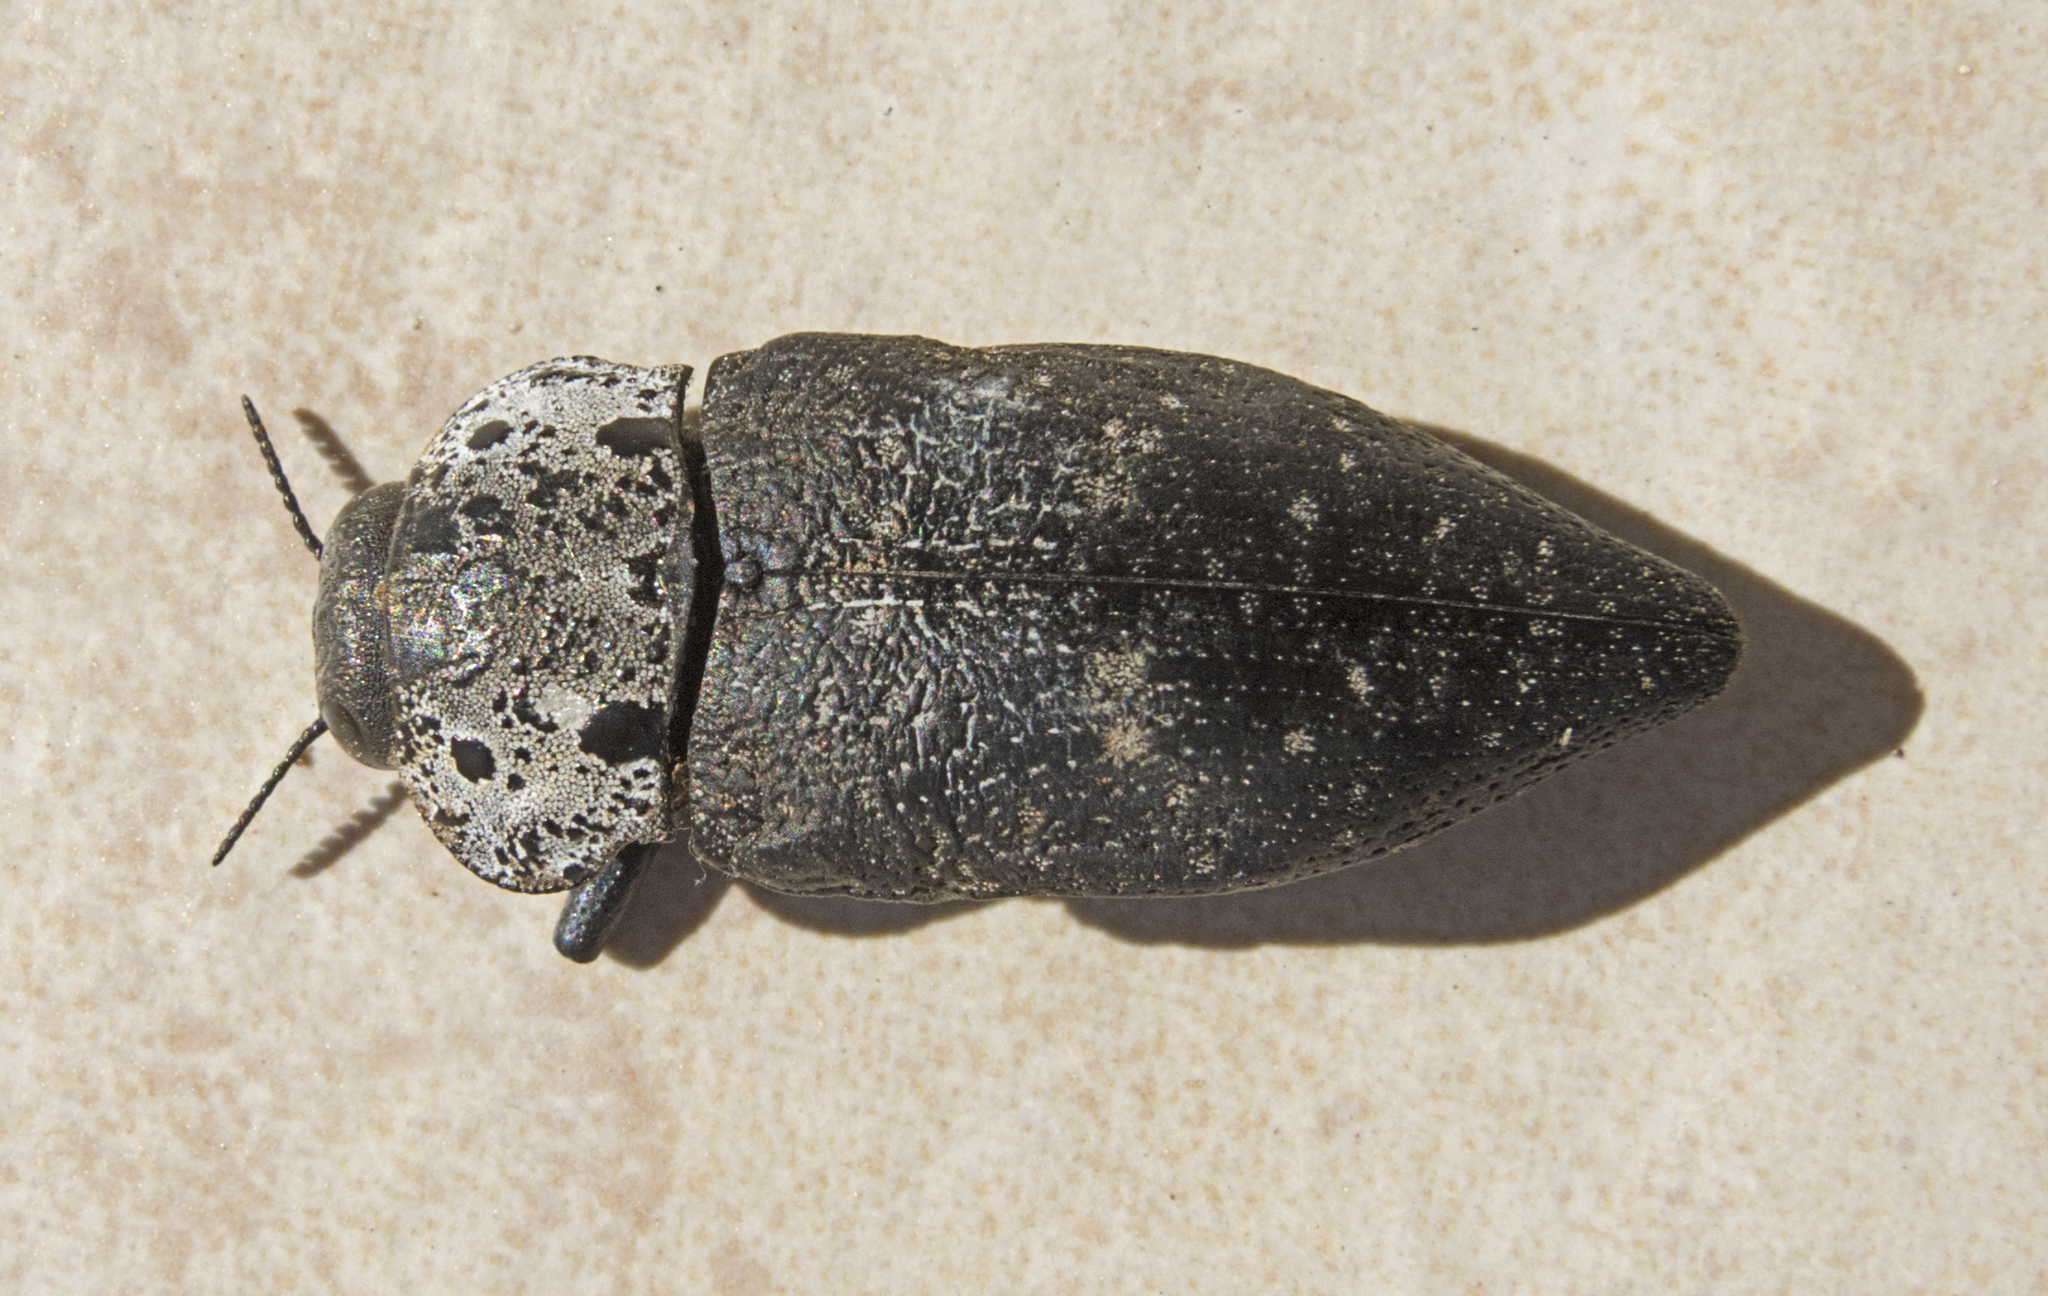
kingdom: Animalia
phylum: Arthropoda
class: Insecta
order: Coleoptera
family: Buprestidae
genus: Capnodis
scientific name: Capnodis tenebrionis
